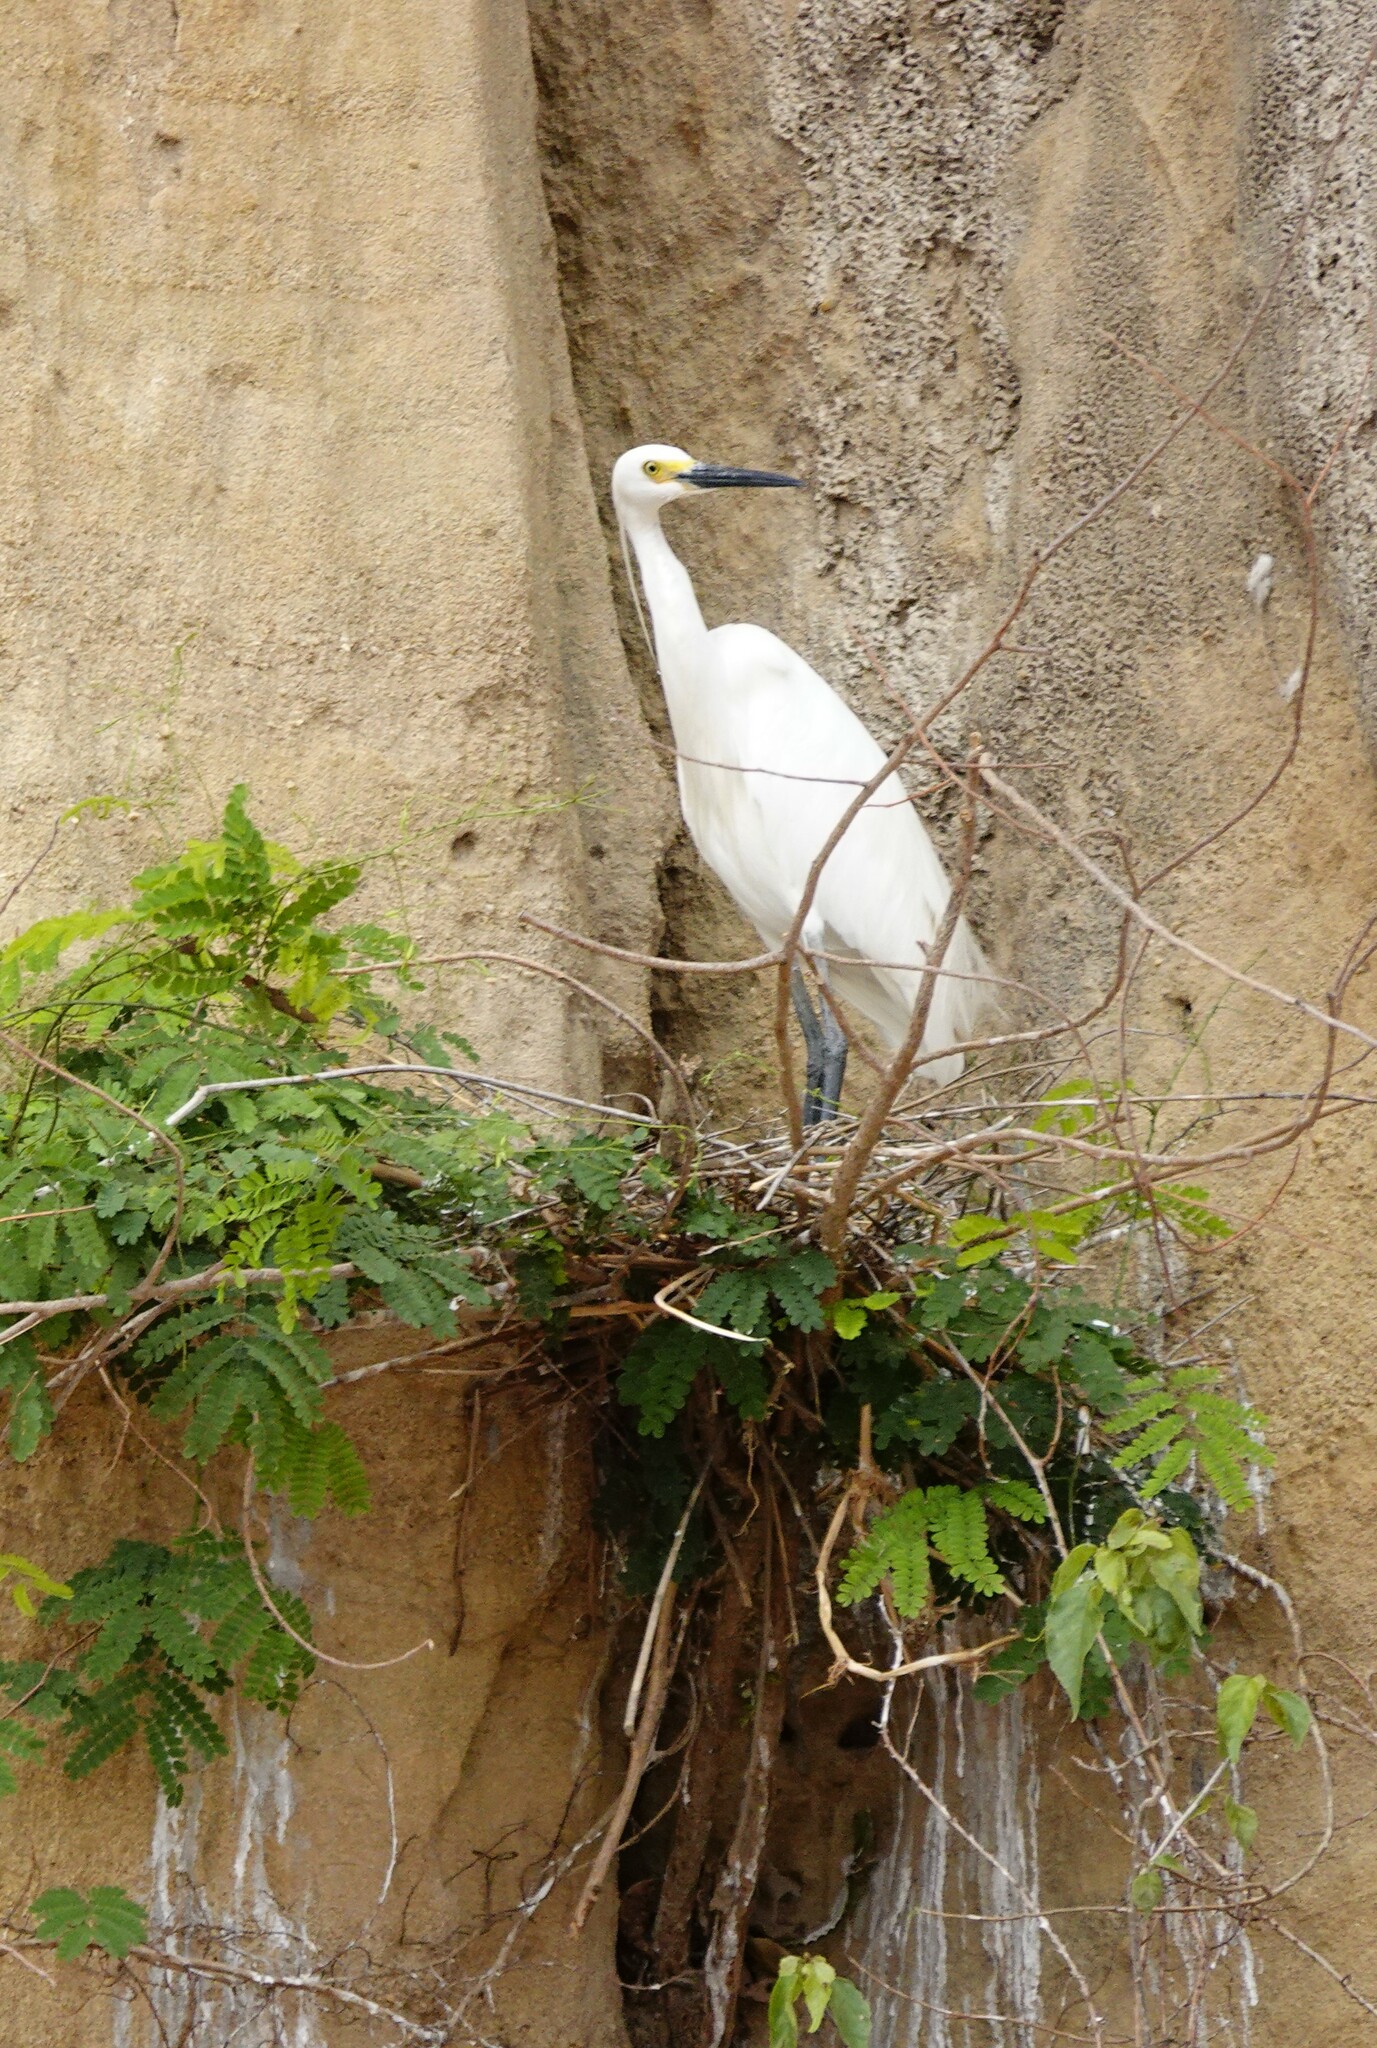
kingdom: Animalia
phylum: Chordata
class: Aves
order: Pelecaniformes
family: Ardeidae
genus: Egretta
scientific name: Egretta dimorpha
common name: Dimorphic egret
